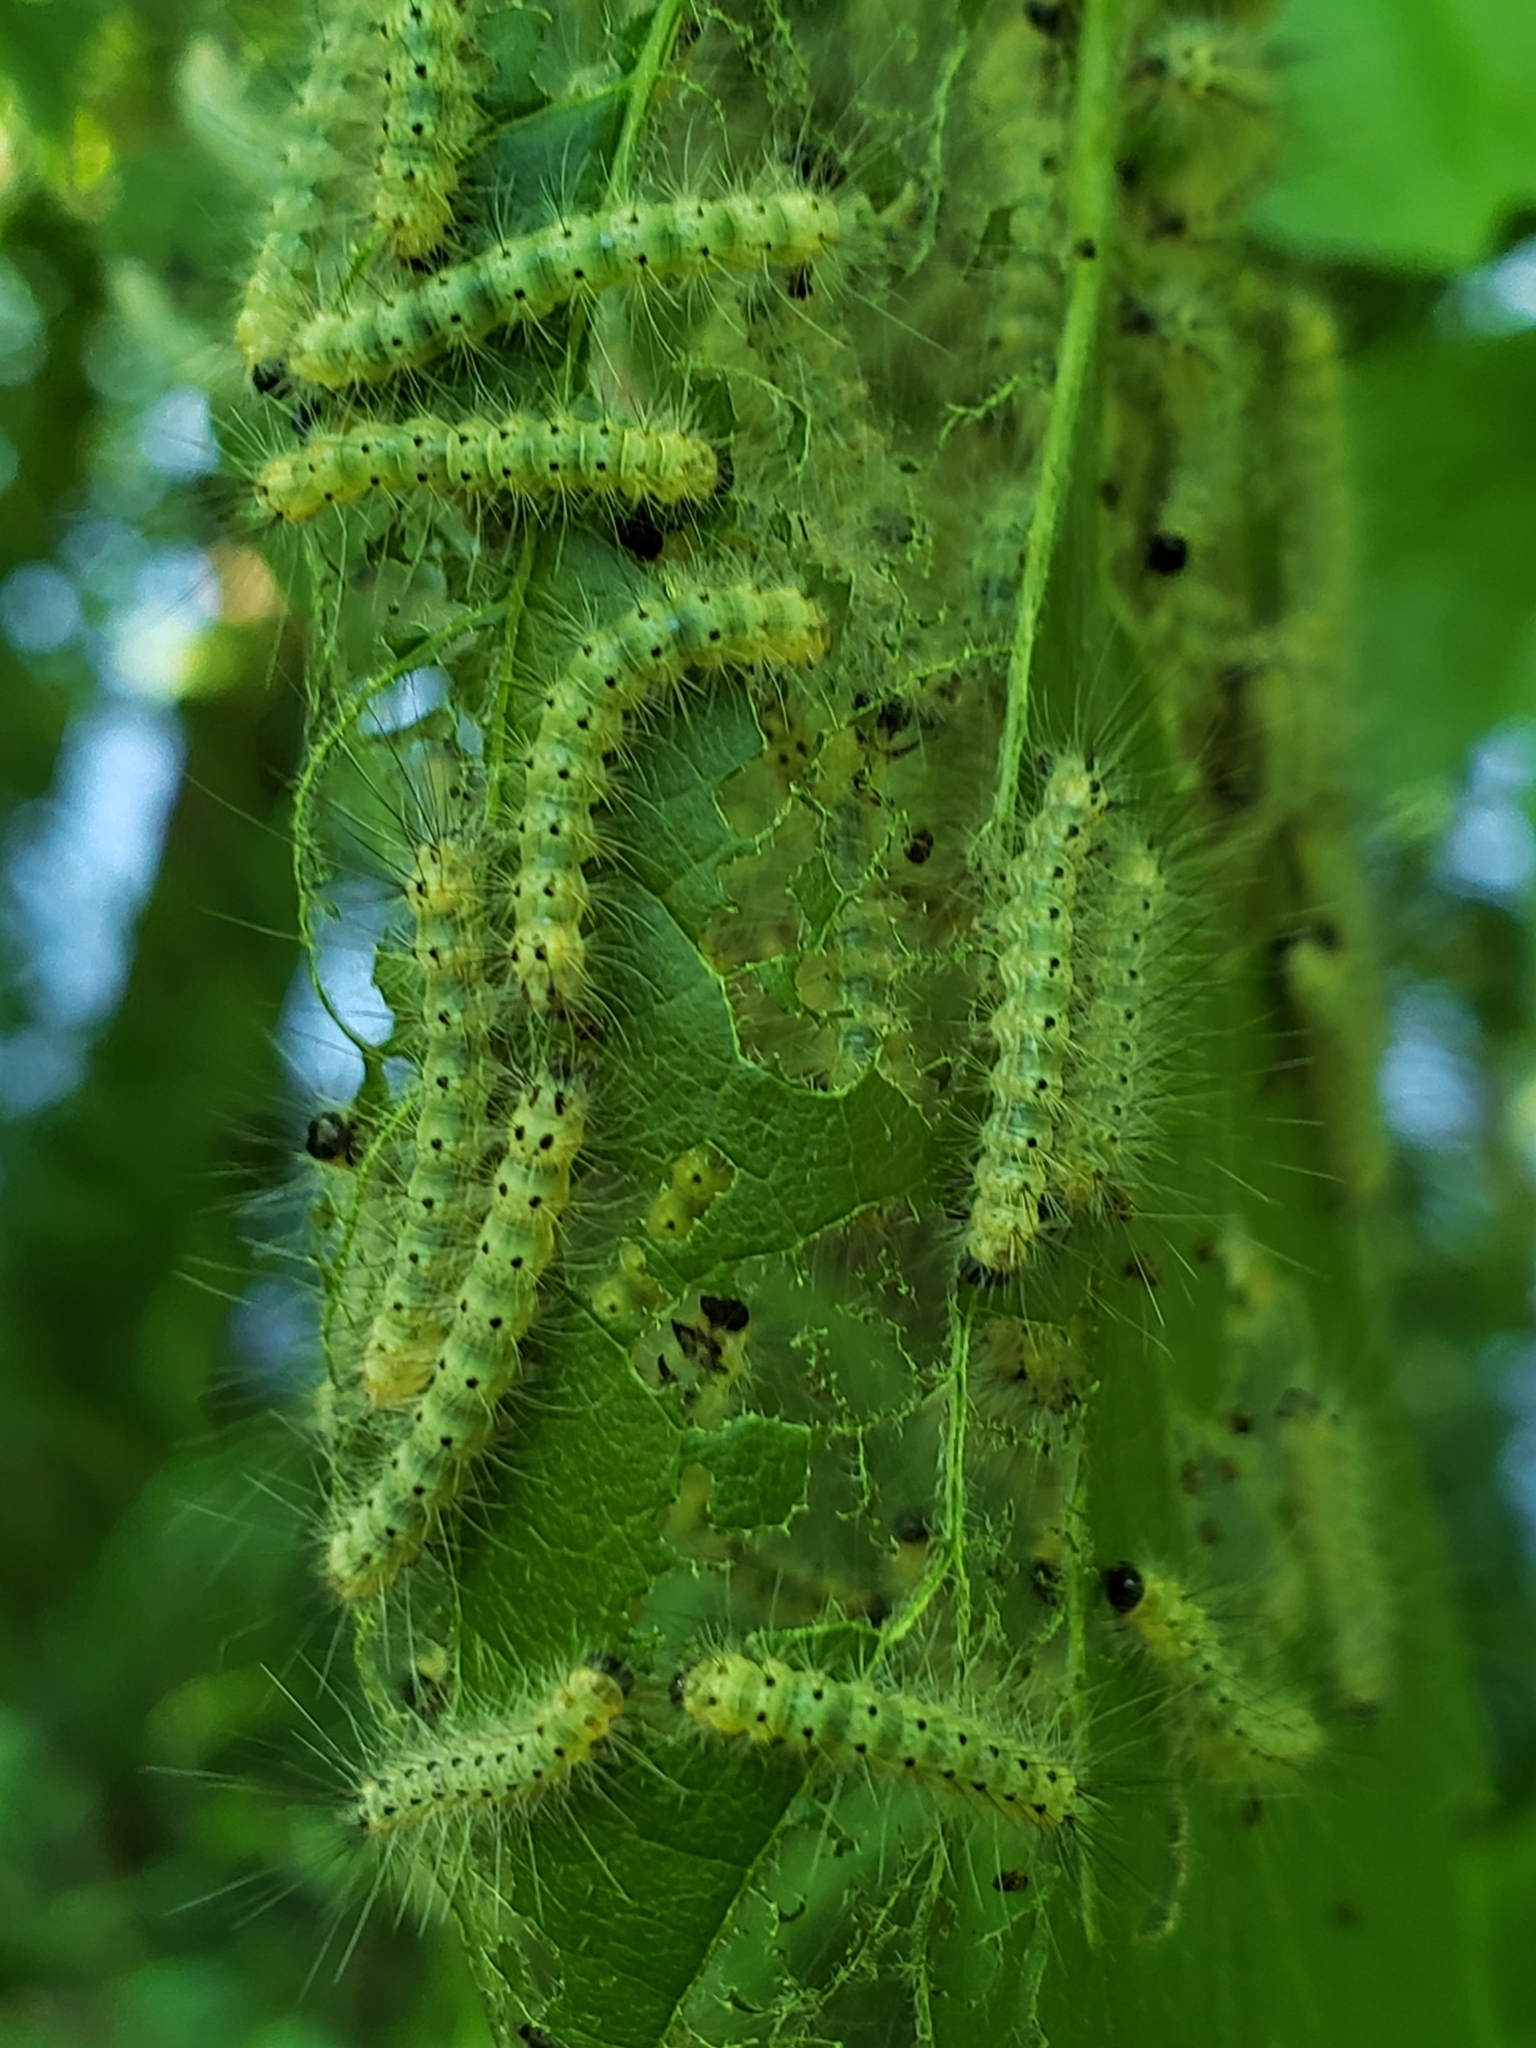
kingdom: Animalia
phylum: Arthropoda
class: Insecta
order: Lepidoptera
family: Erebidae
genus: Hyphantria
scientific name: Hyphantria cunea
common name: American white moth
